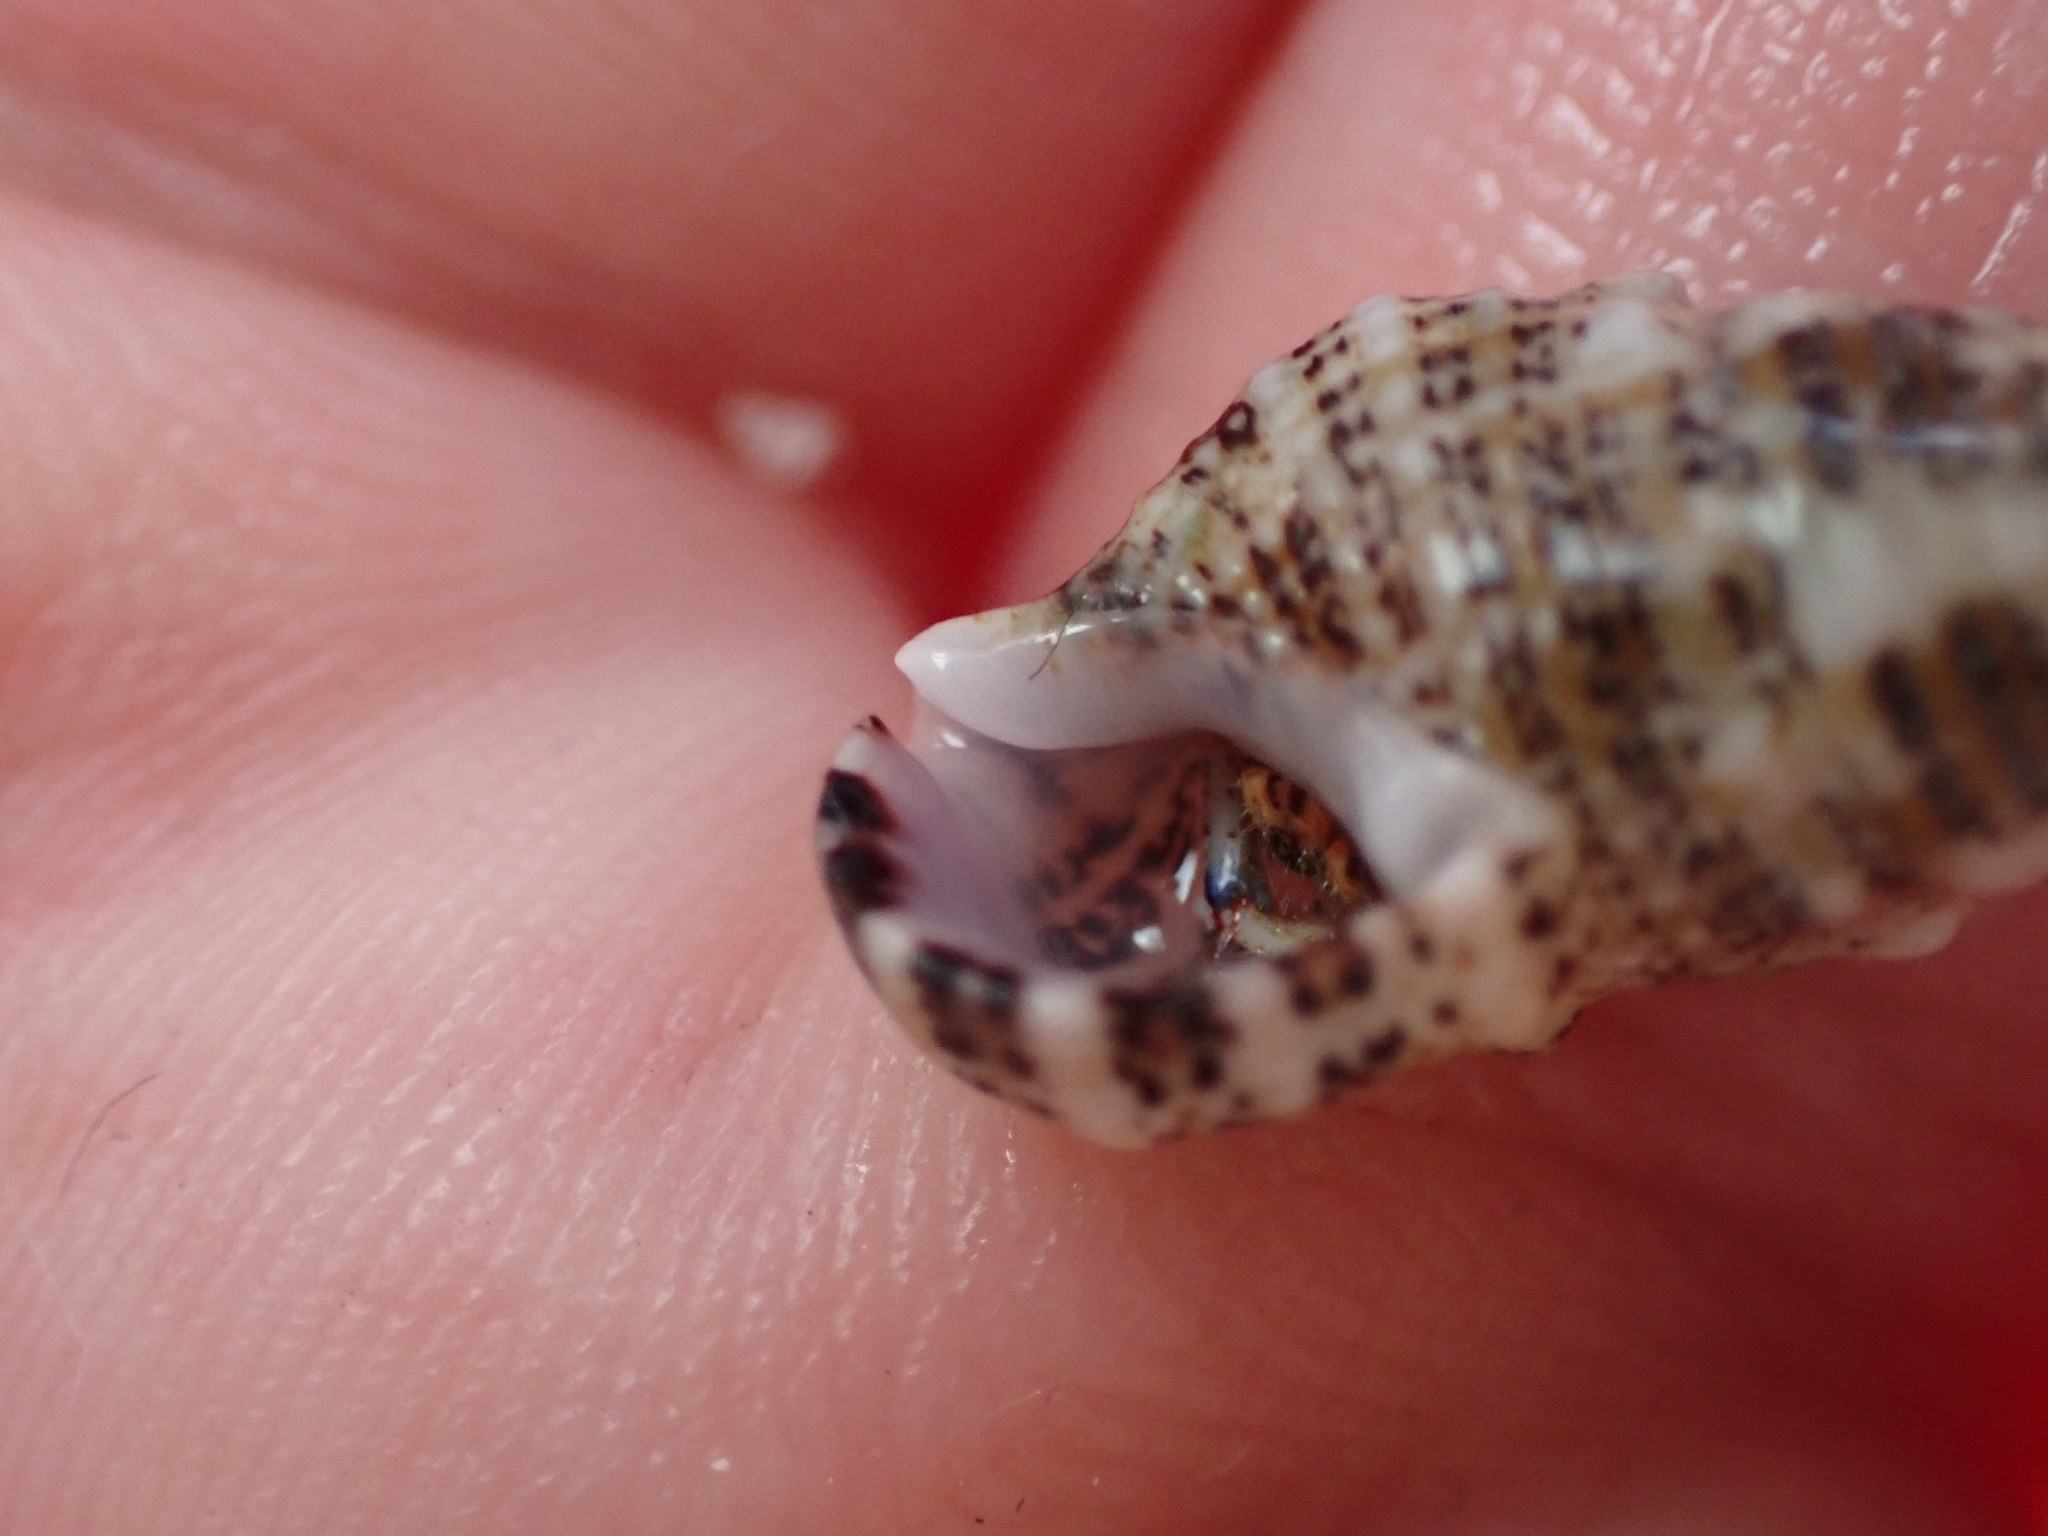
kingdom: Animalia
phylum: Mollusca
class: Gastropoda
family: Cerithiidae
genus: Cerithium
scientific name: Cerithium litteratum
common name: Stocky cerith
